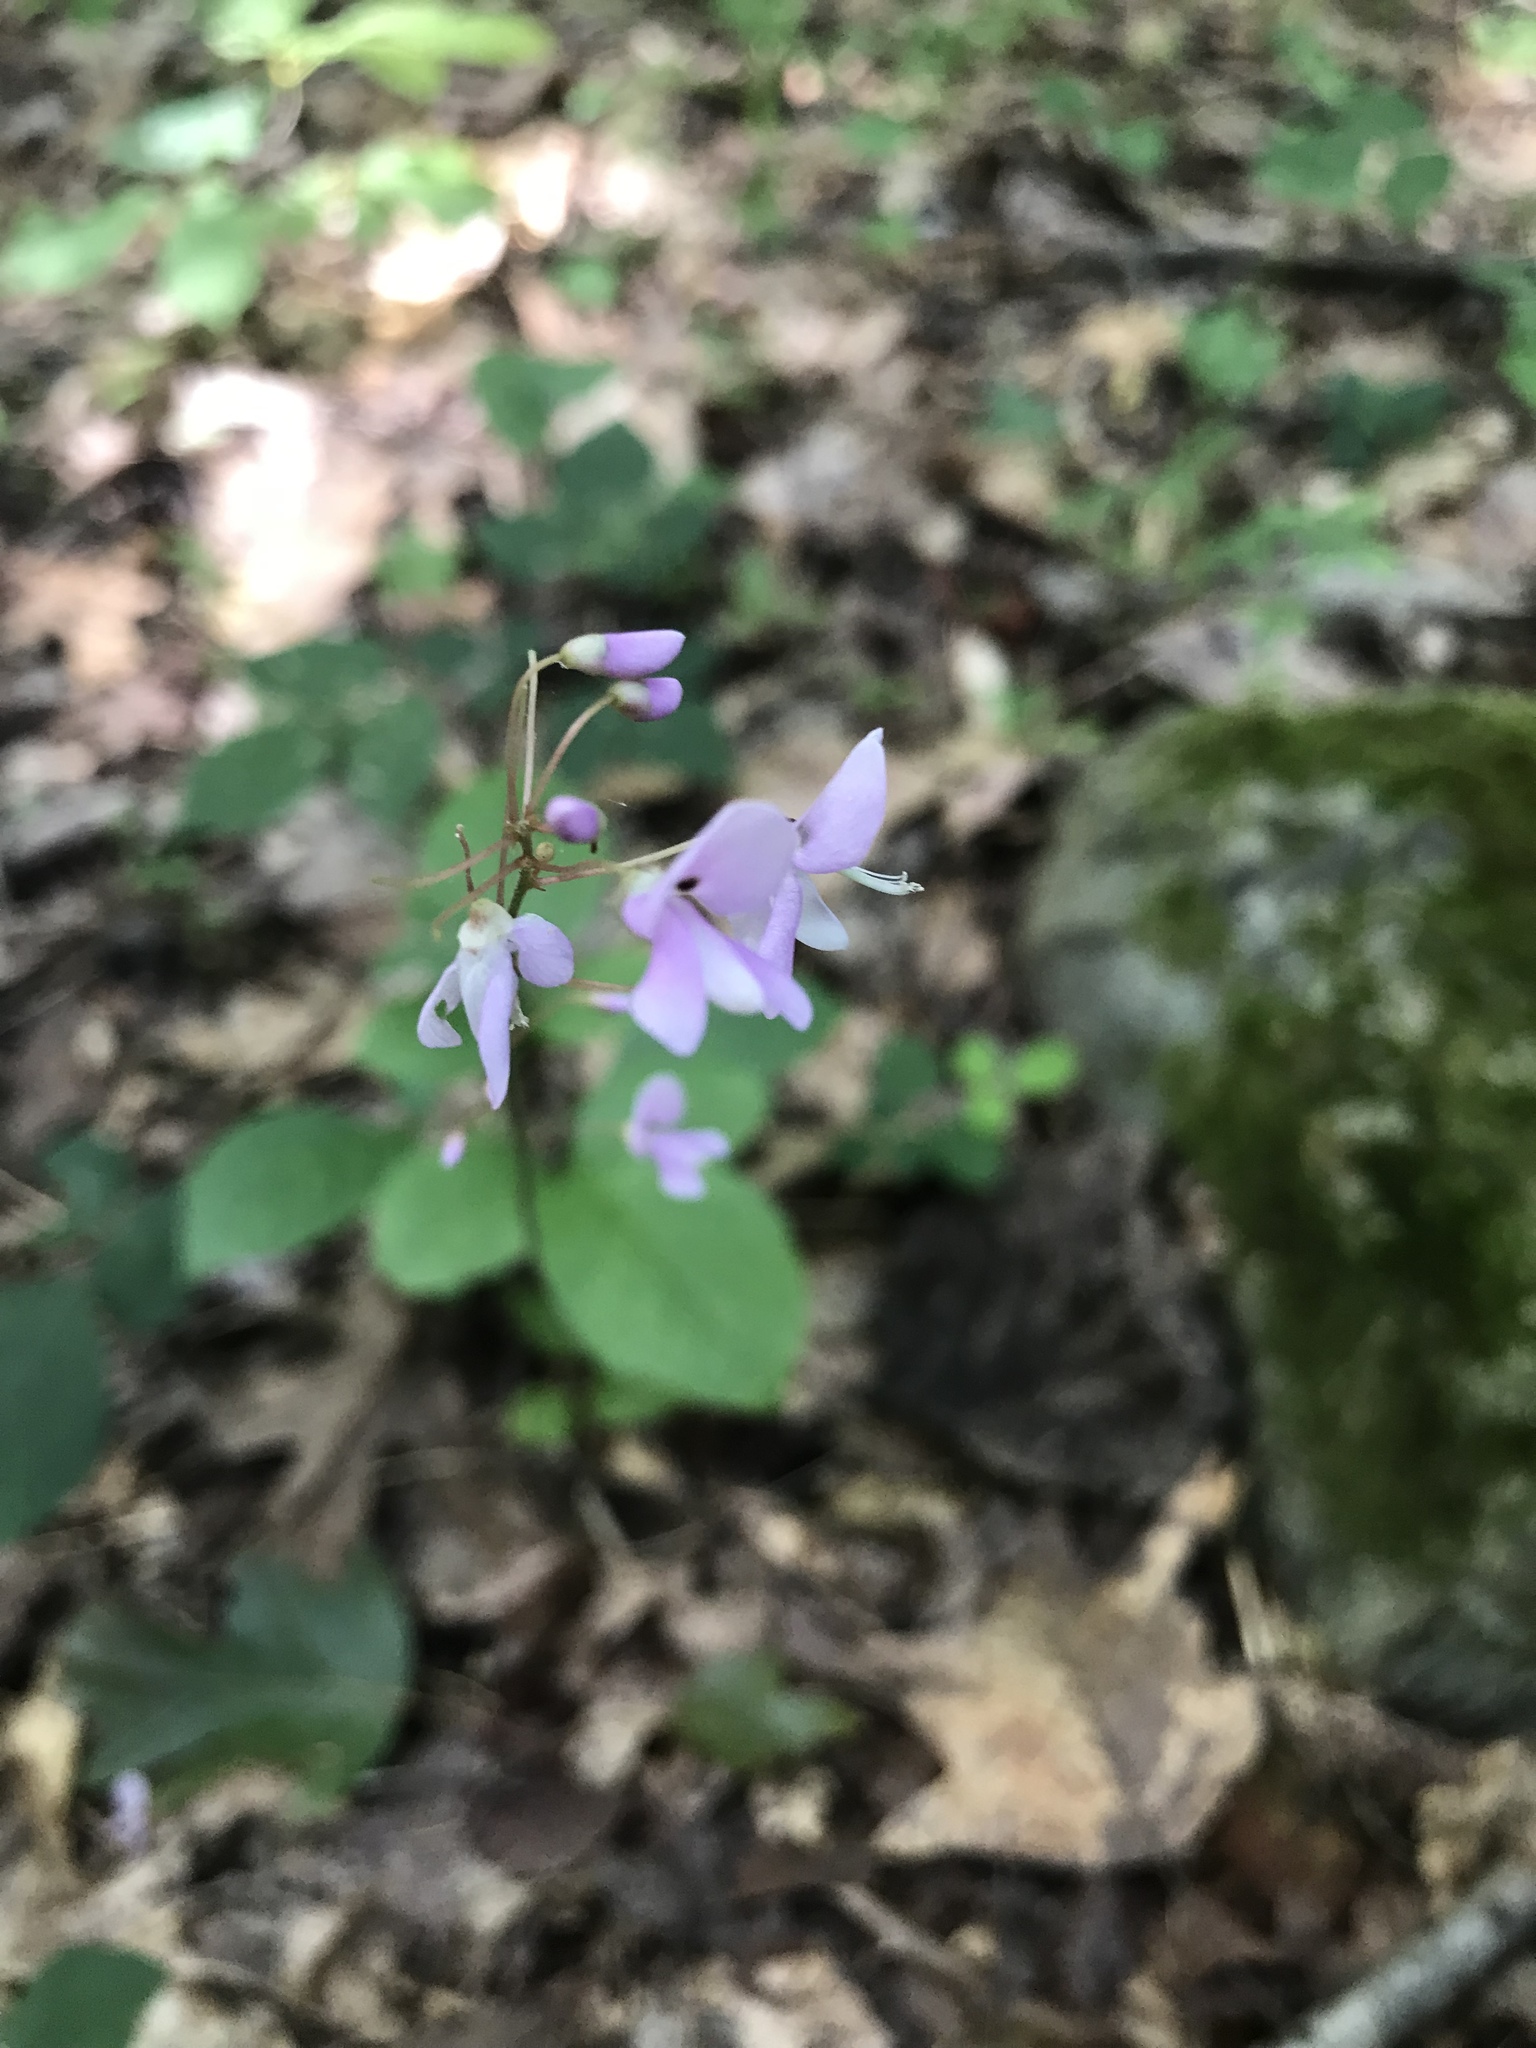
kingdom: Plantae
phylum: Tracheophyta
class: Magnoliopsida
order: Fabales
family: Fabaceae
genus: Hylodesmum
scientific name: Hylodesmum nudiflorum
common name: Bare-stemmed tick-trefoil
